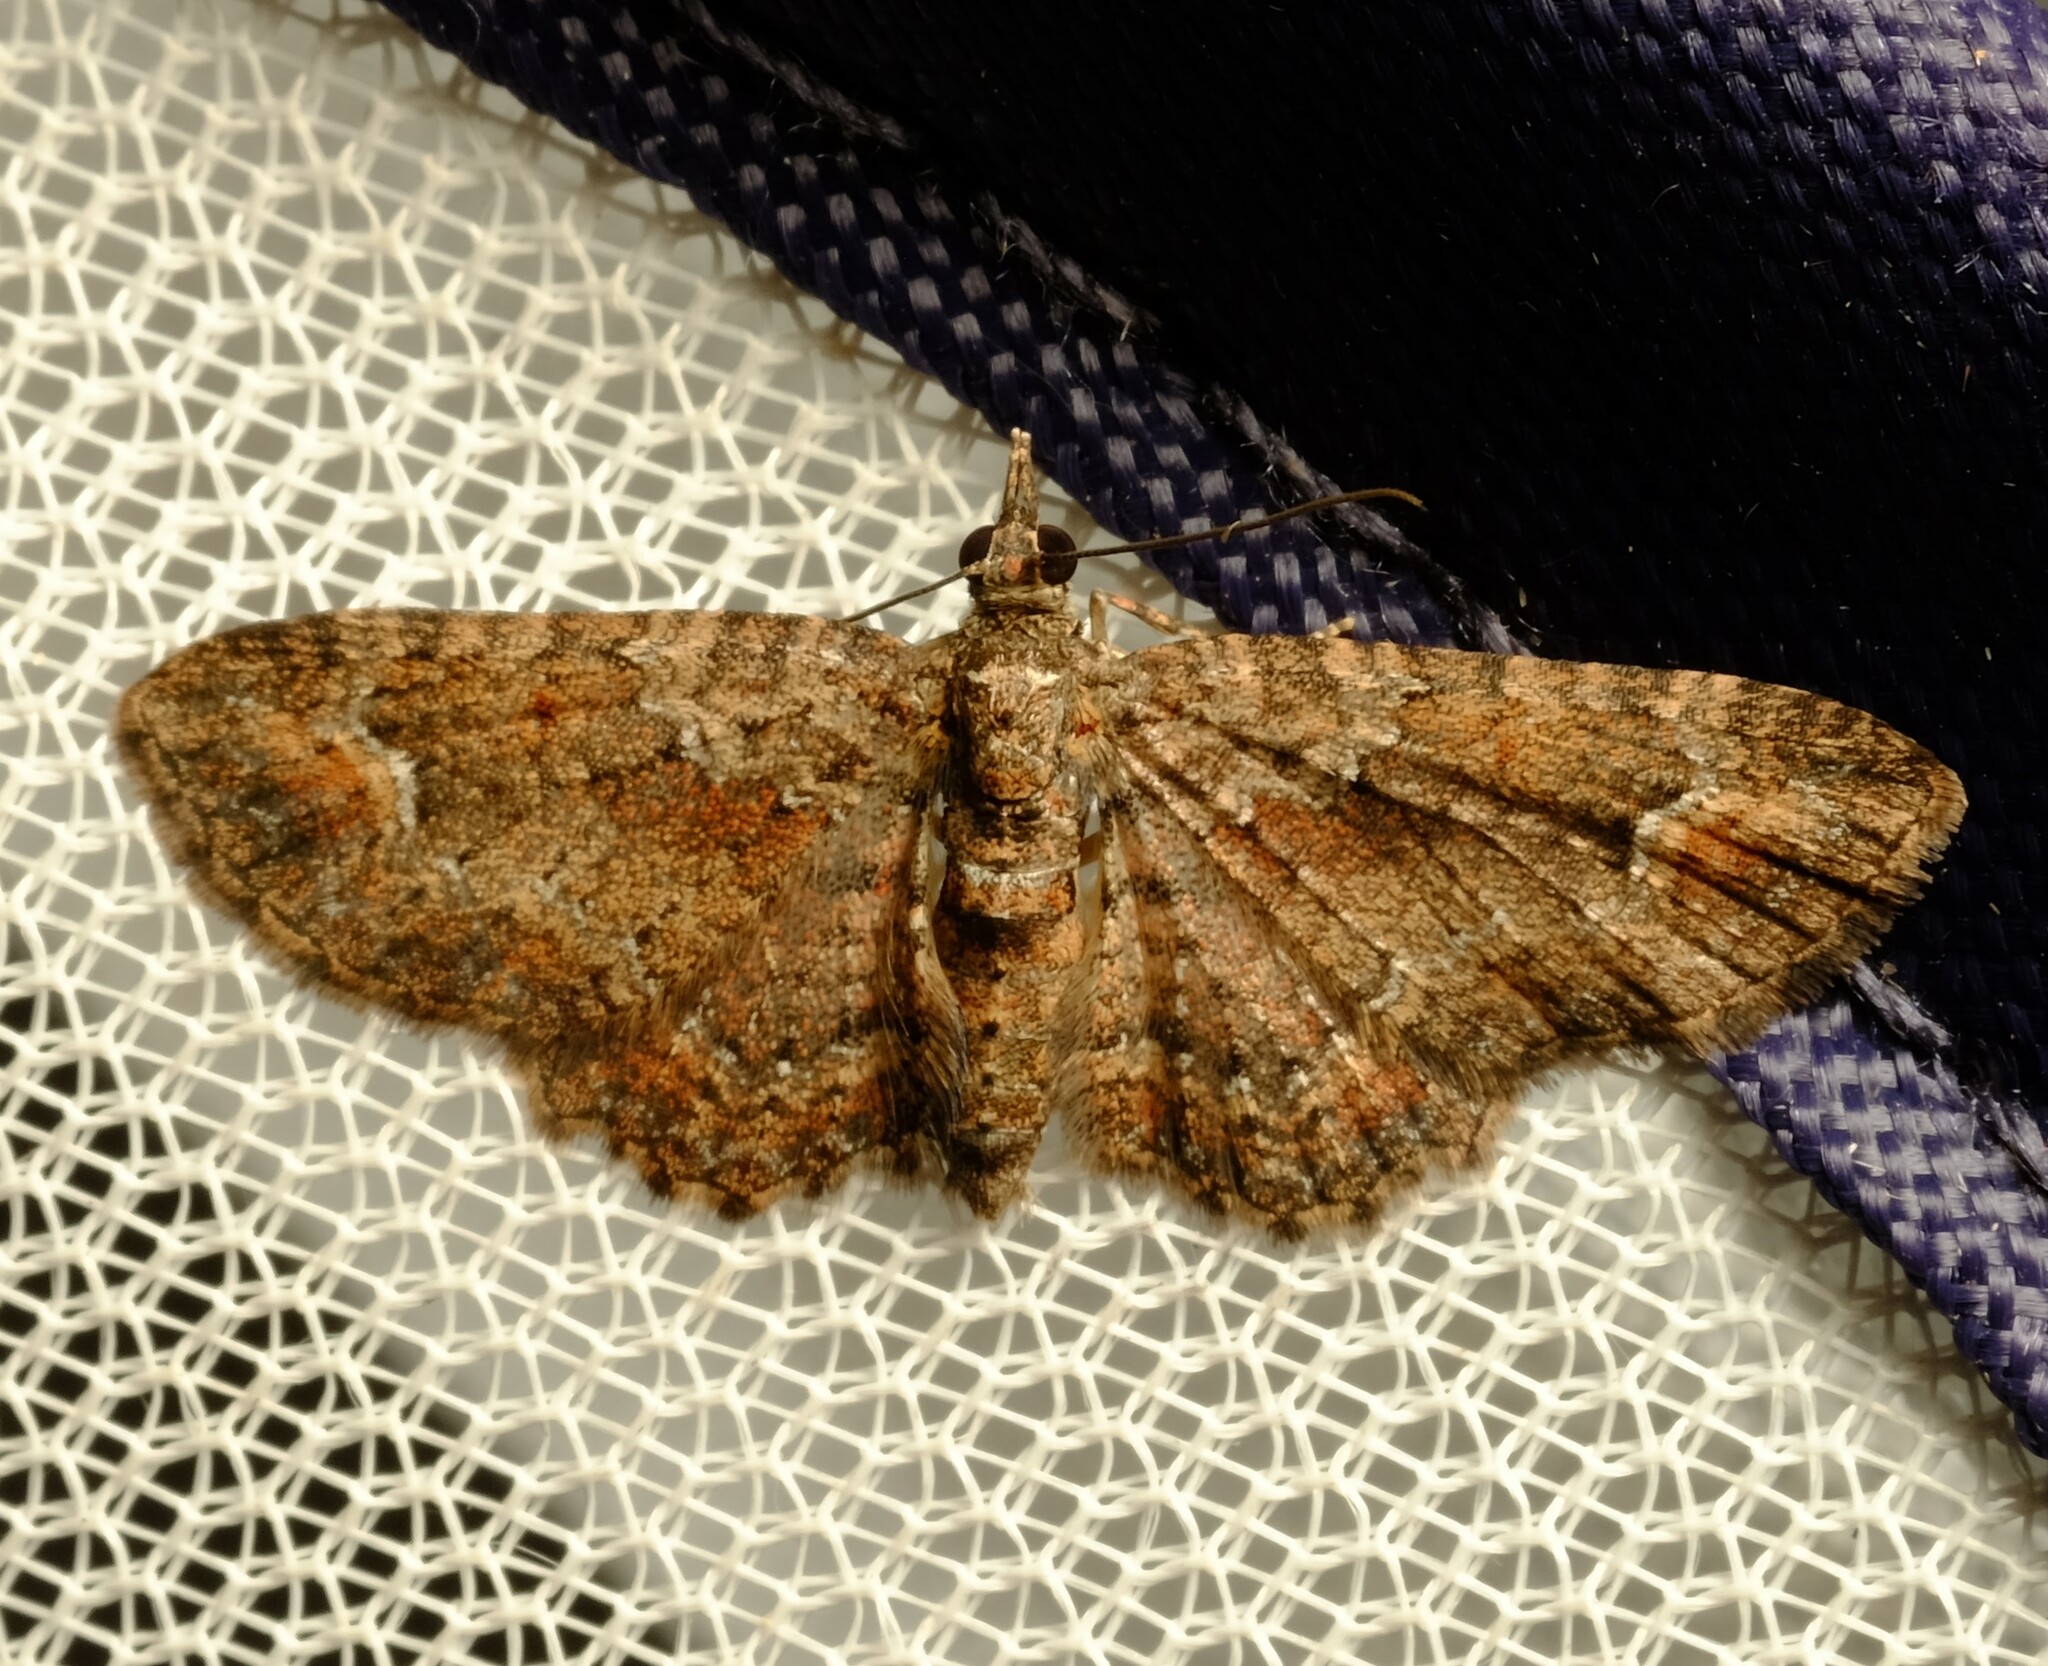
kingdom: Animalia
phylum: Arthropoda
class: Insecta
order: Lepidoptera
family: Geometridae
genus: Pasiphilodes
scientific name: Pasiphilodes testulata
